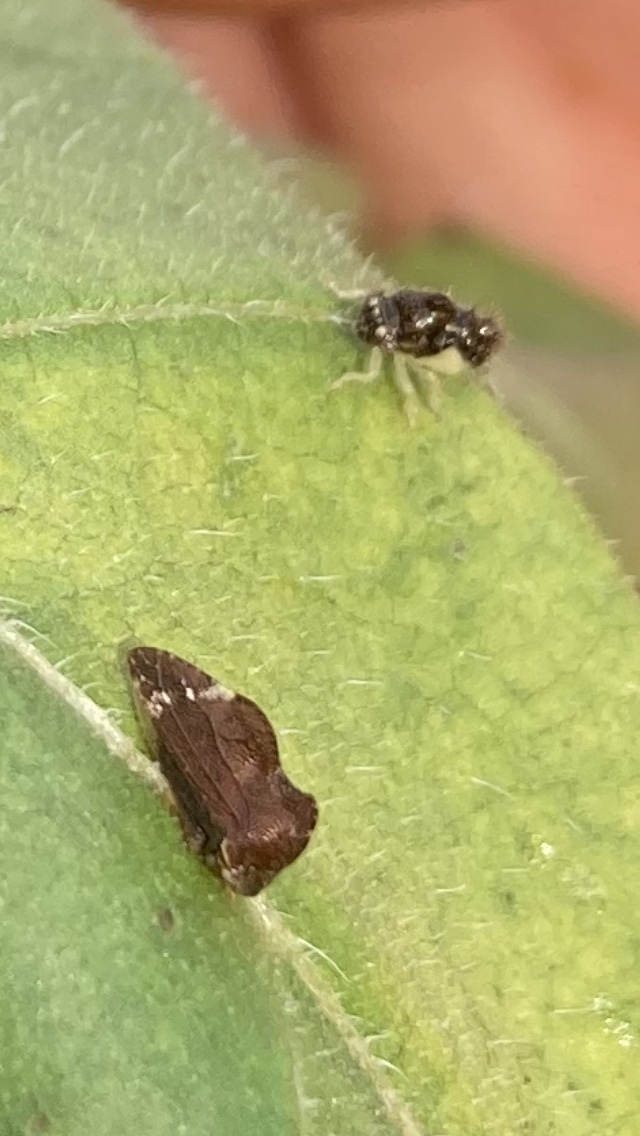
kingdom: Animalia
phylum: Arthropoda
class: Insecta
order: Hemiptera
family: Membracidae
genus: Entylia
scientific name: Entylia carinata
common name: Keeled treehopper
